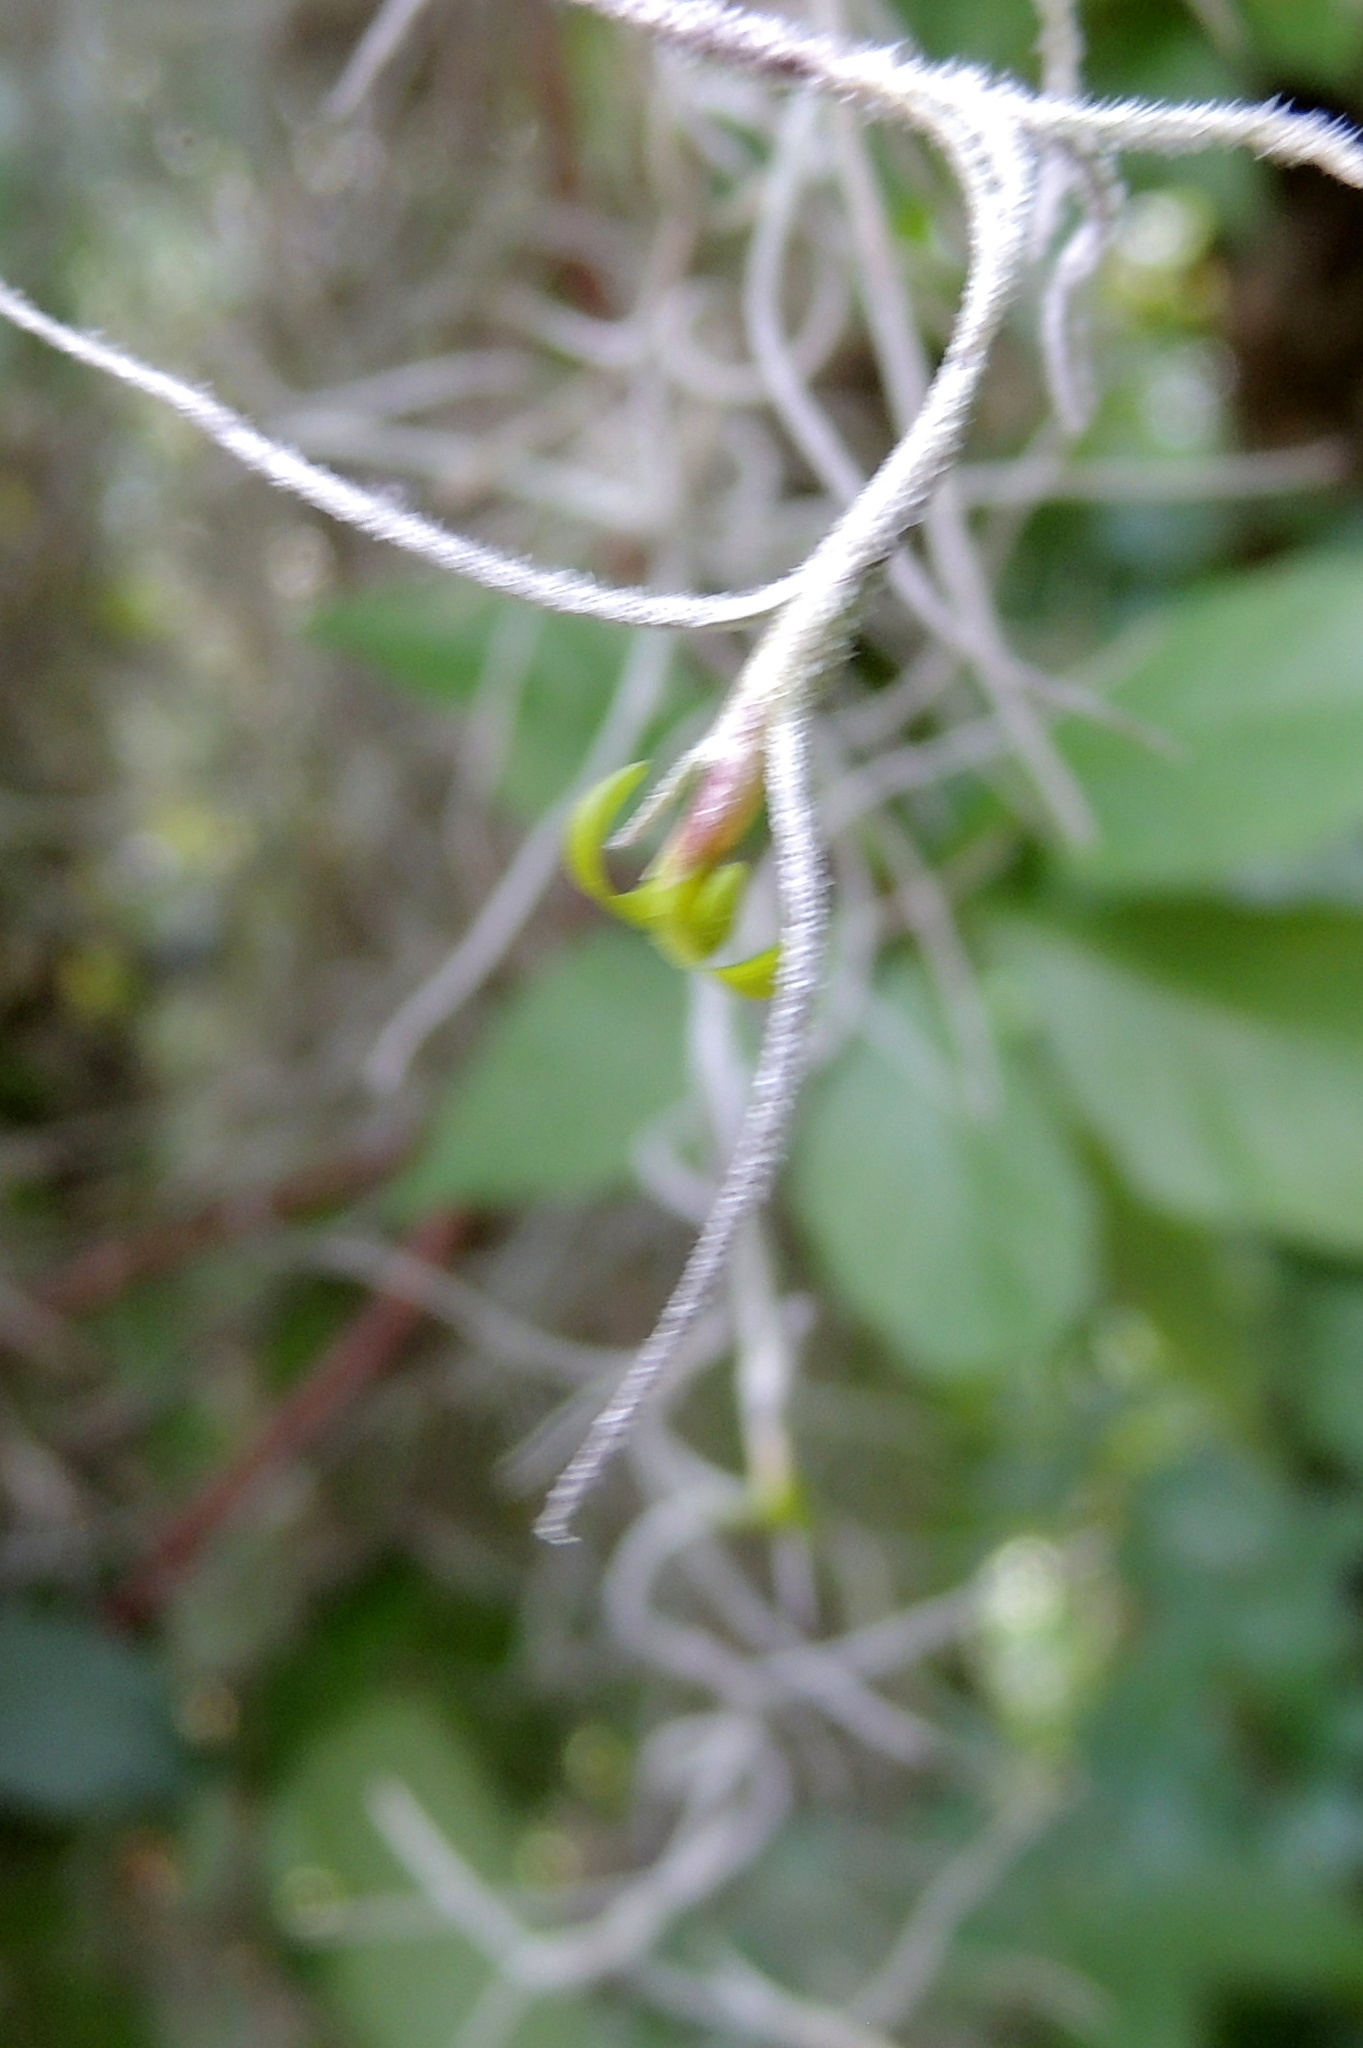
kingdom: Plantae
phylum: Tracheophyta
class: Liliopsida
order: Poales
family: Bromeliaceae
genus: Tillandsia
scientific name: Tillandsia usneoides
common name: Spanish moss
